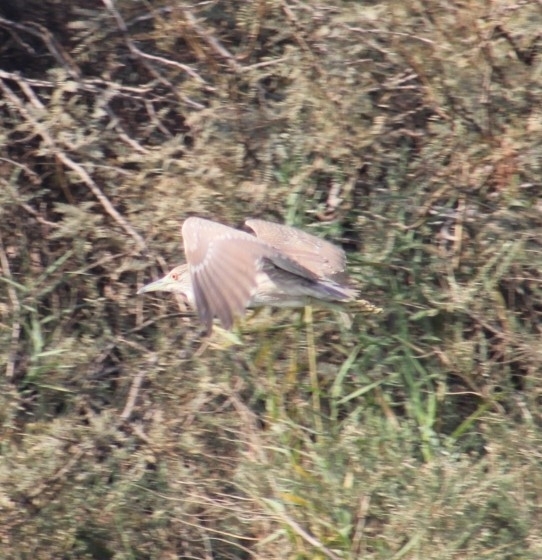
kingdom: Animalia
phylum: Chordata
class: Aves
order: Pelecaniformes
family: Ardeidae
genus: Nycticorax
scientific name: Nycticorax nycticorax
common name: Black-crowned night heron
